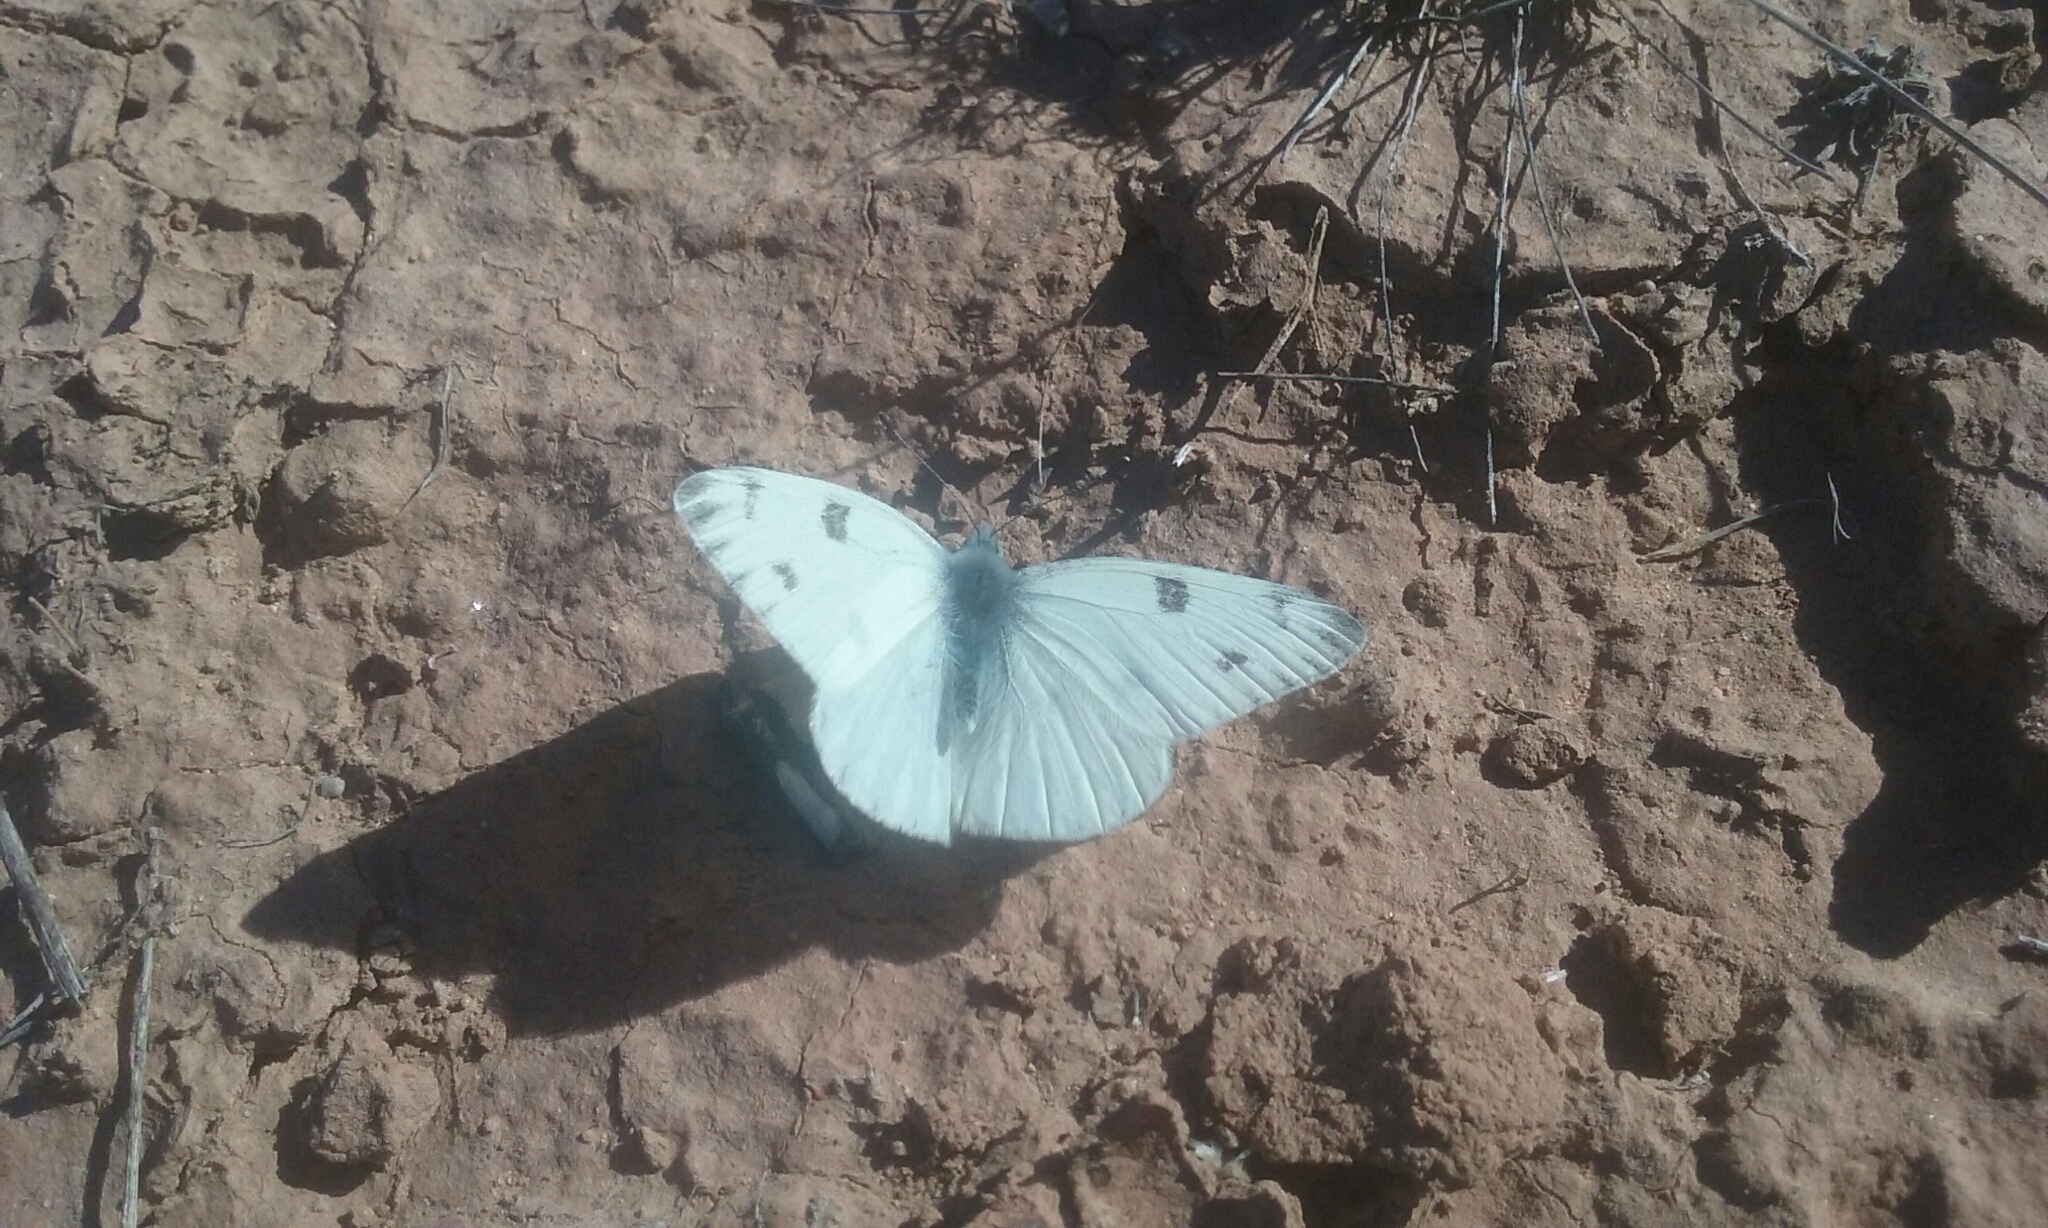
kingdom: Animalia
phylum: Arthropoda
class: Insecta
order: Lepidoptera
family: Pieridae
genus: Pontia
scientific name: Pontia protodice
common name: Checkered white
